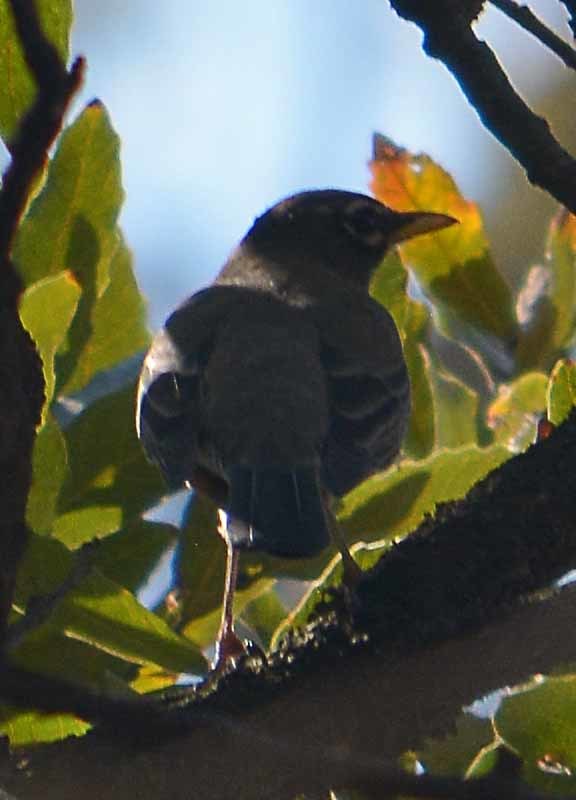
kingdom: Animalia
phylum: Chordata
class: Aves
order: Passeriformes
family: Turdidae
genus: Turdus
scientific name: Turdus migratorius
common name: American robin
